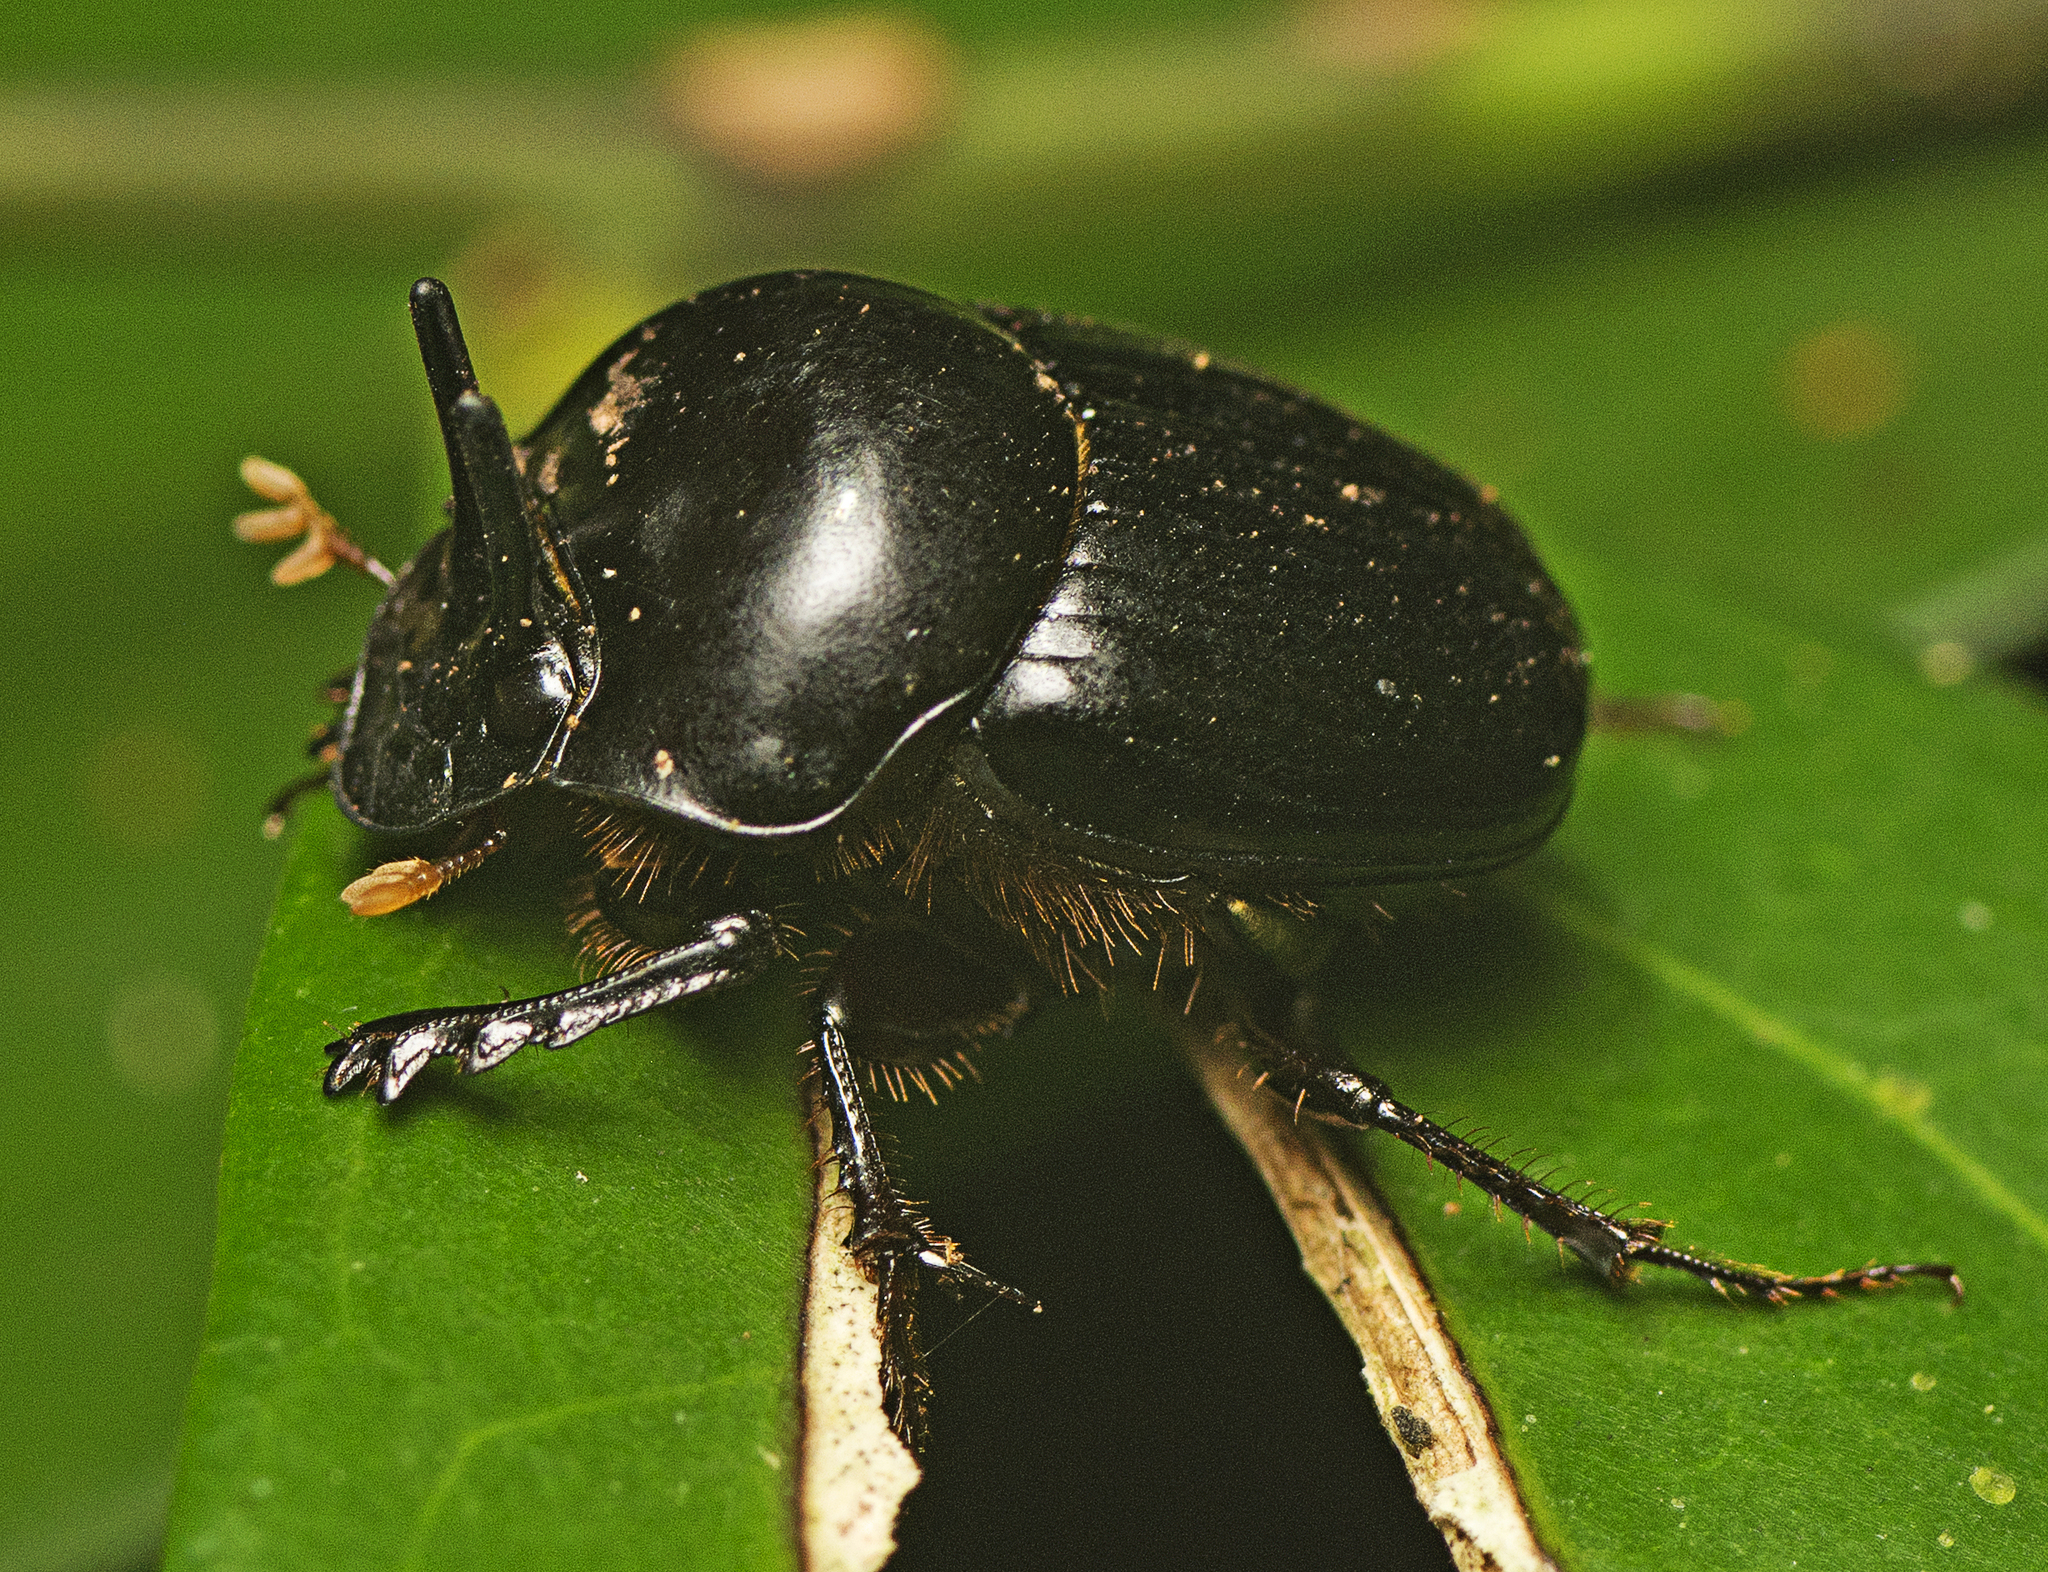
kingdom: Animalia
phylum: Arthropoda
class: Insecta
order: Coleoptera
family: Scarabaeidae
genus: Onthophagus
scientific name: Onthophagus neostenocerus
